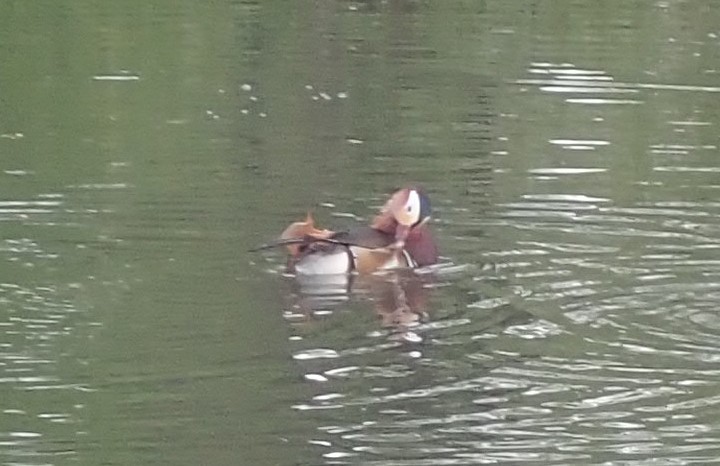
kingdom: Animalia
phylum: Chordata
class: Aves
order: Anseriformes
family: Anatidae
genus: Aix
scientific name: Aix galericulata
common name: Mandarin duck
